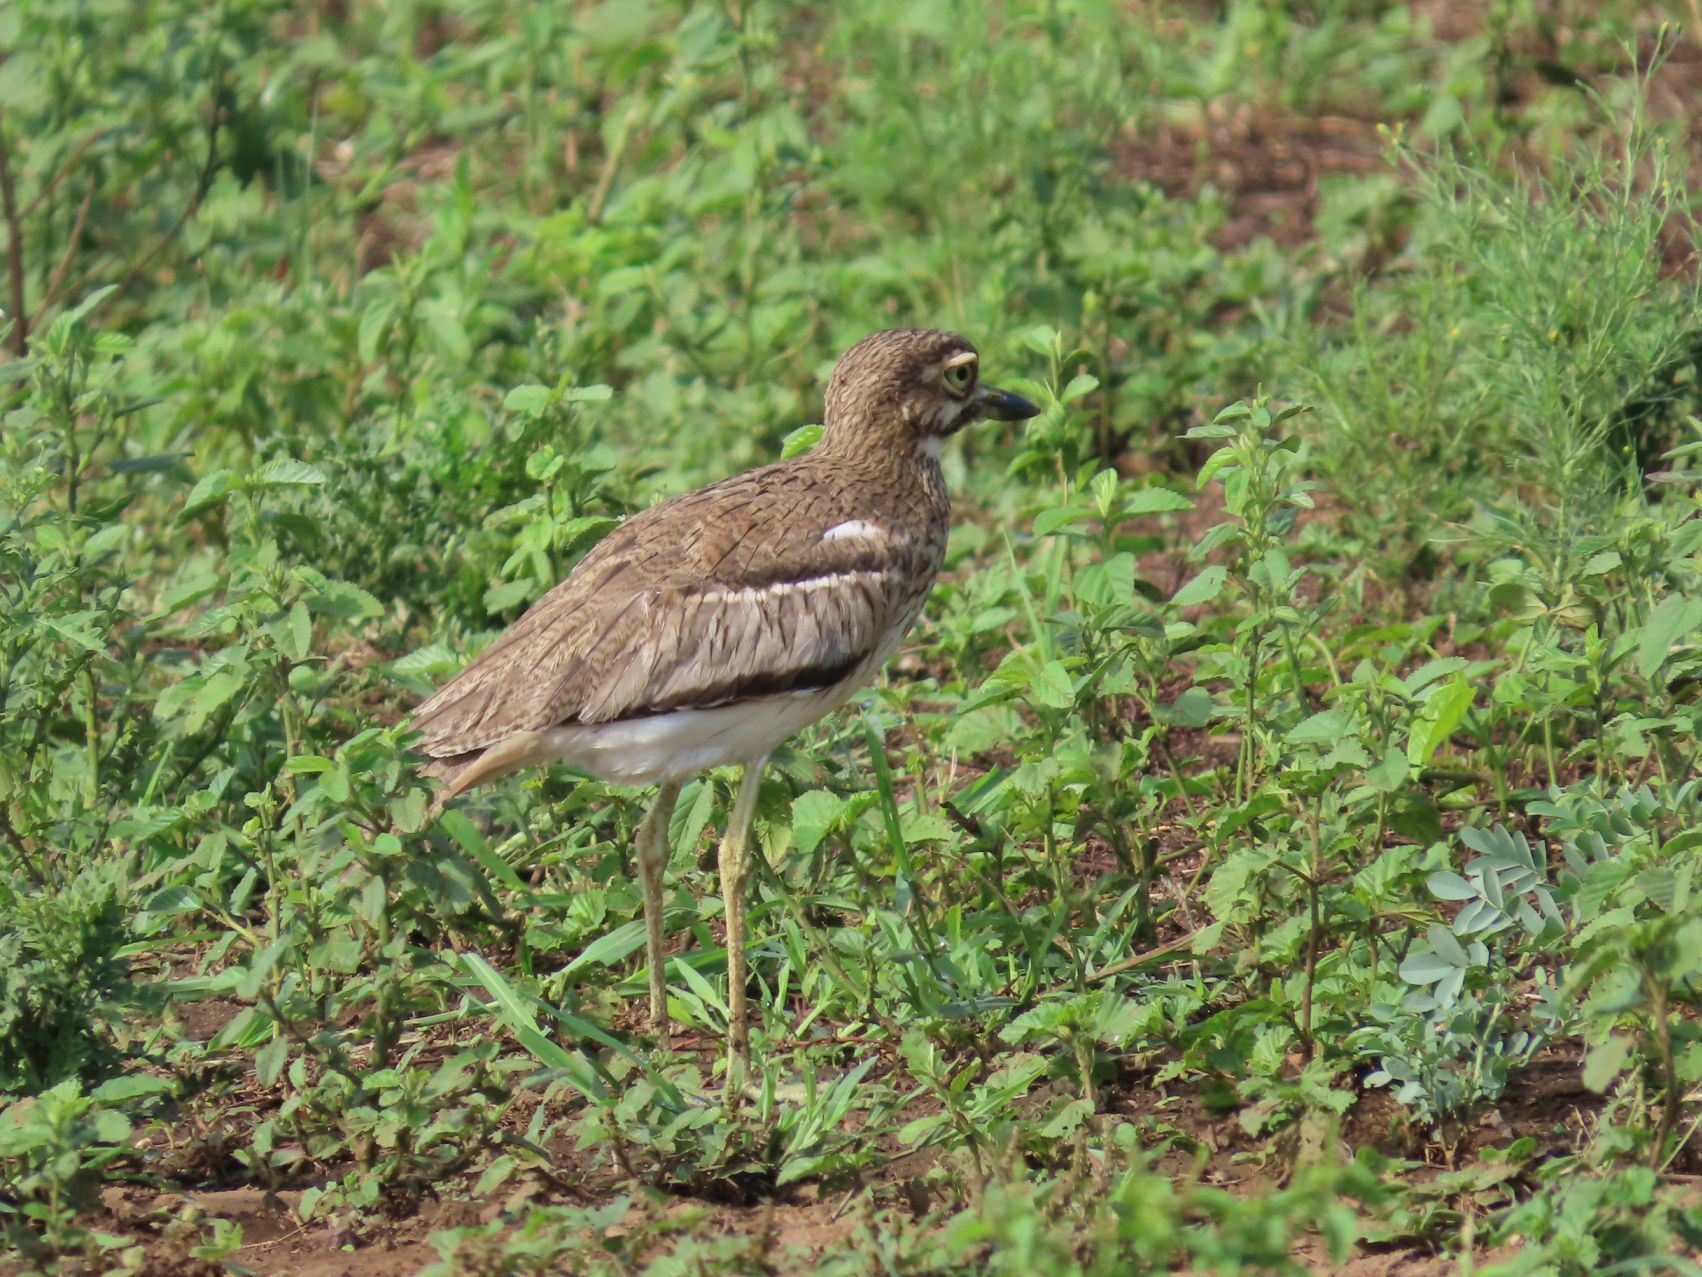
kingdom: Animalia
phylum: Chordata
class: Aves
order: Charadriiformes
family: Burhinidae
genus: Burhinus
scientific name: Burhinus vermiculatus
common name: Water thick-knee
